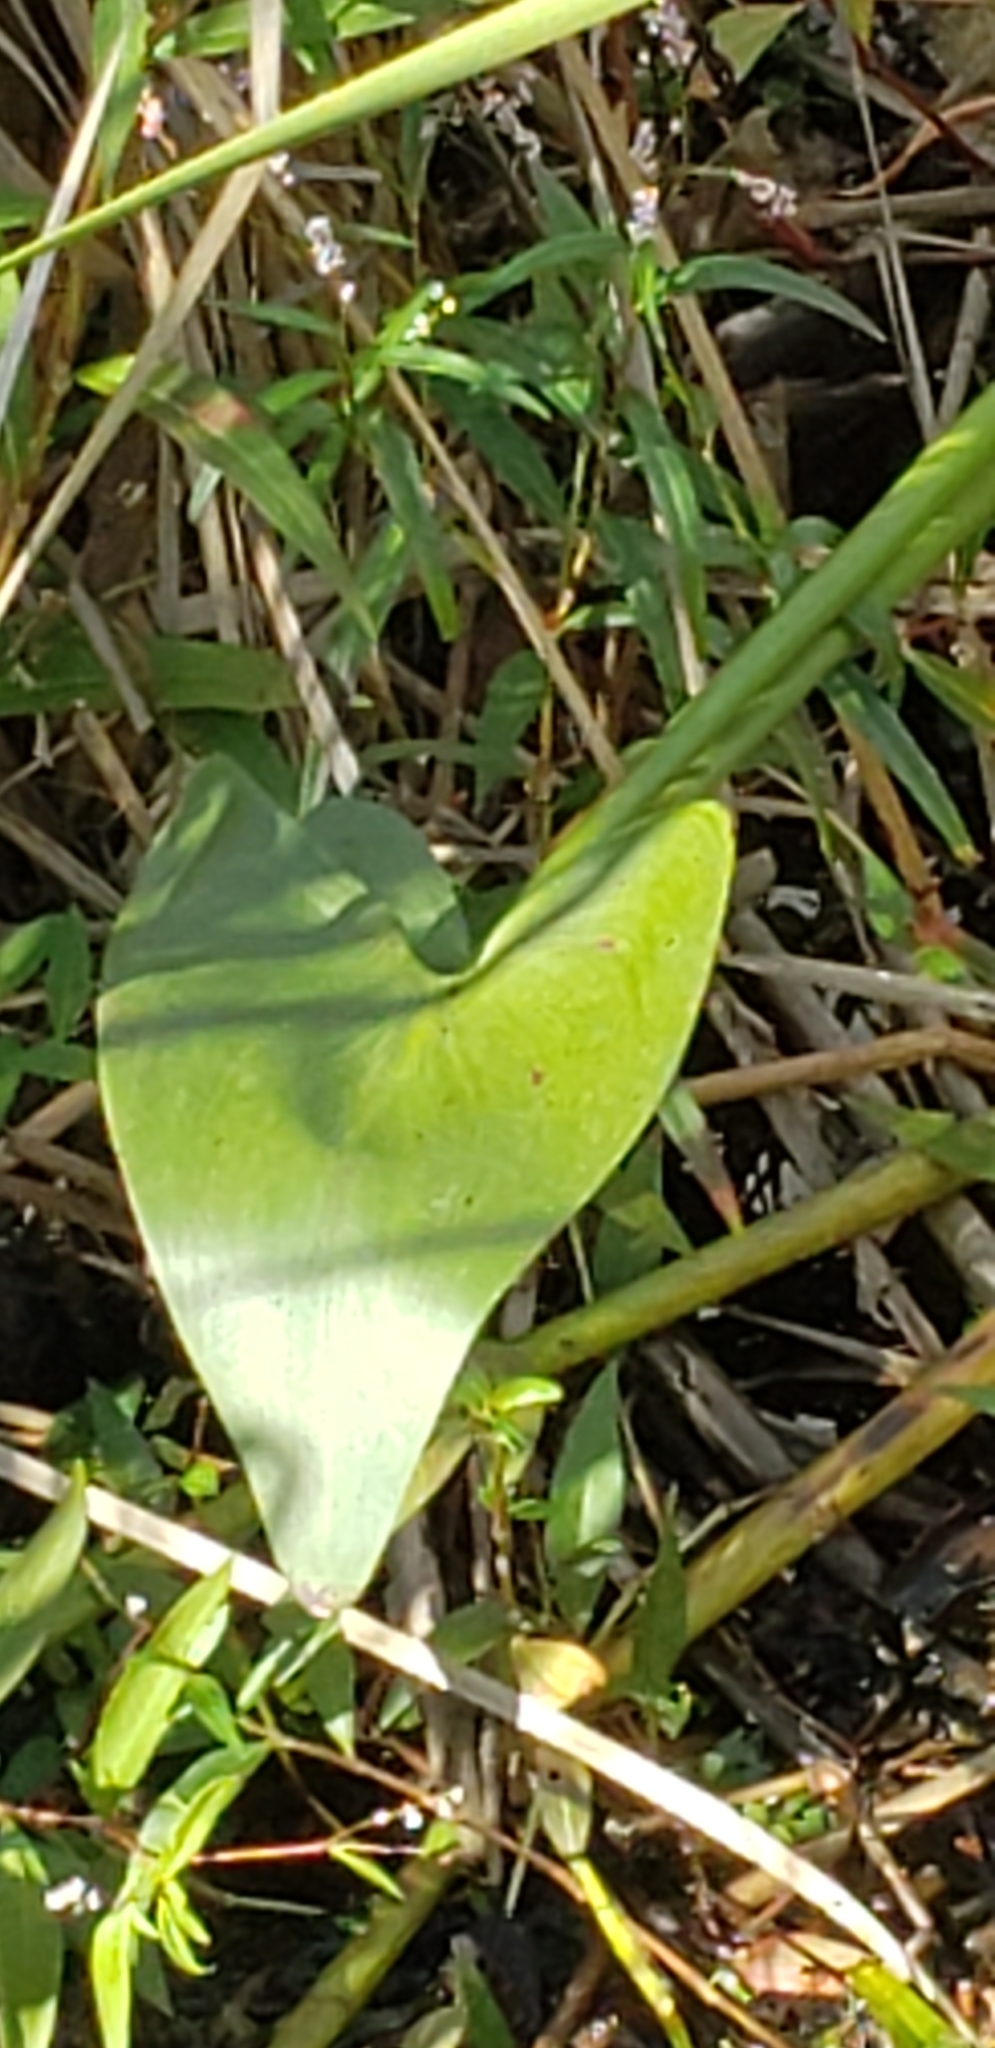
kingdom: Plantae
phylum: Tracheophyta
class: Liliopsida
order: Commelinales
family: Pontederiaceae
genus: Pontederia
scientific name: Pontederia cordata
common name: Pickerelweed
